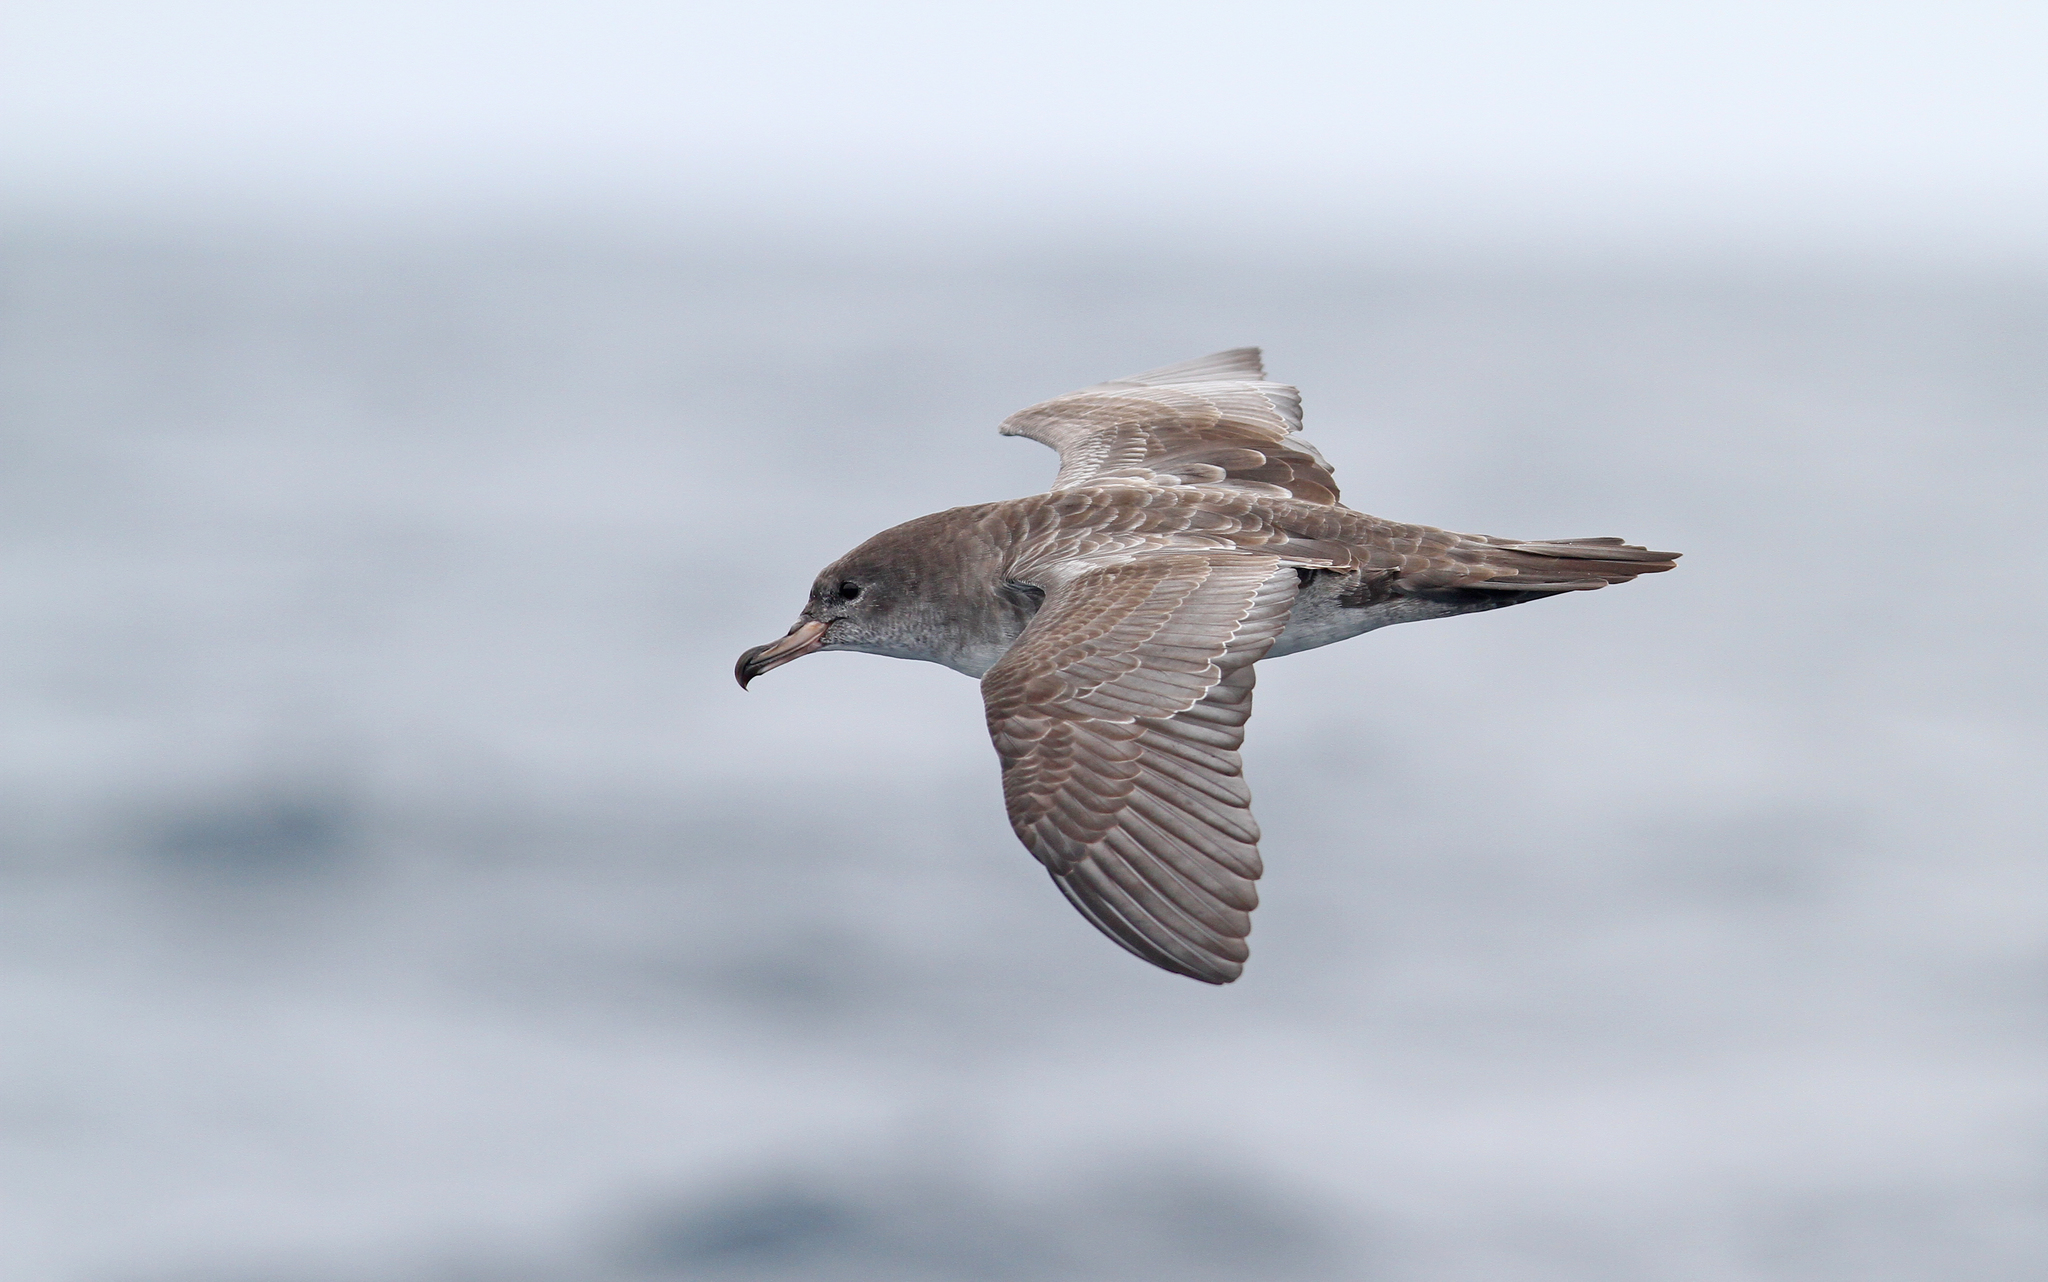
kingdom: Animalia
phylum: Chordata
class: Aves
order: Procellariiformes
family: Procellariidae
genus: Puffinus
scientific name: Puffinus creatopus
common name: Pink-footed shearwater
